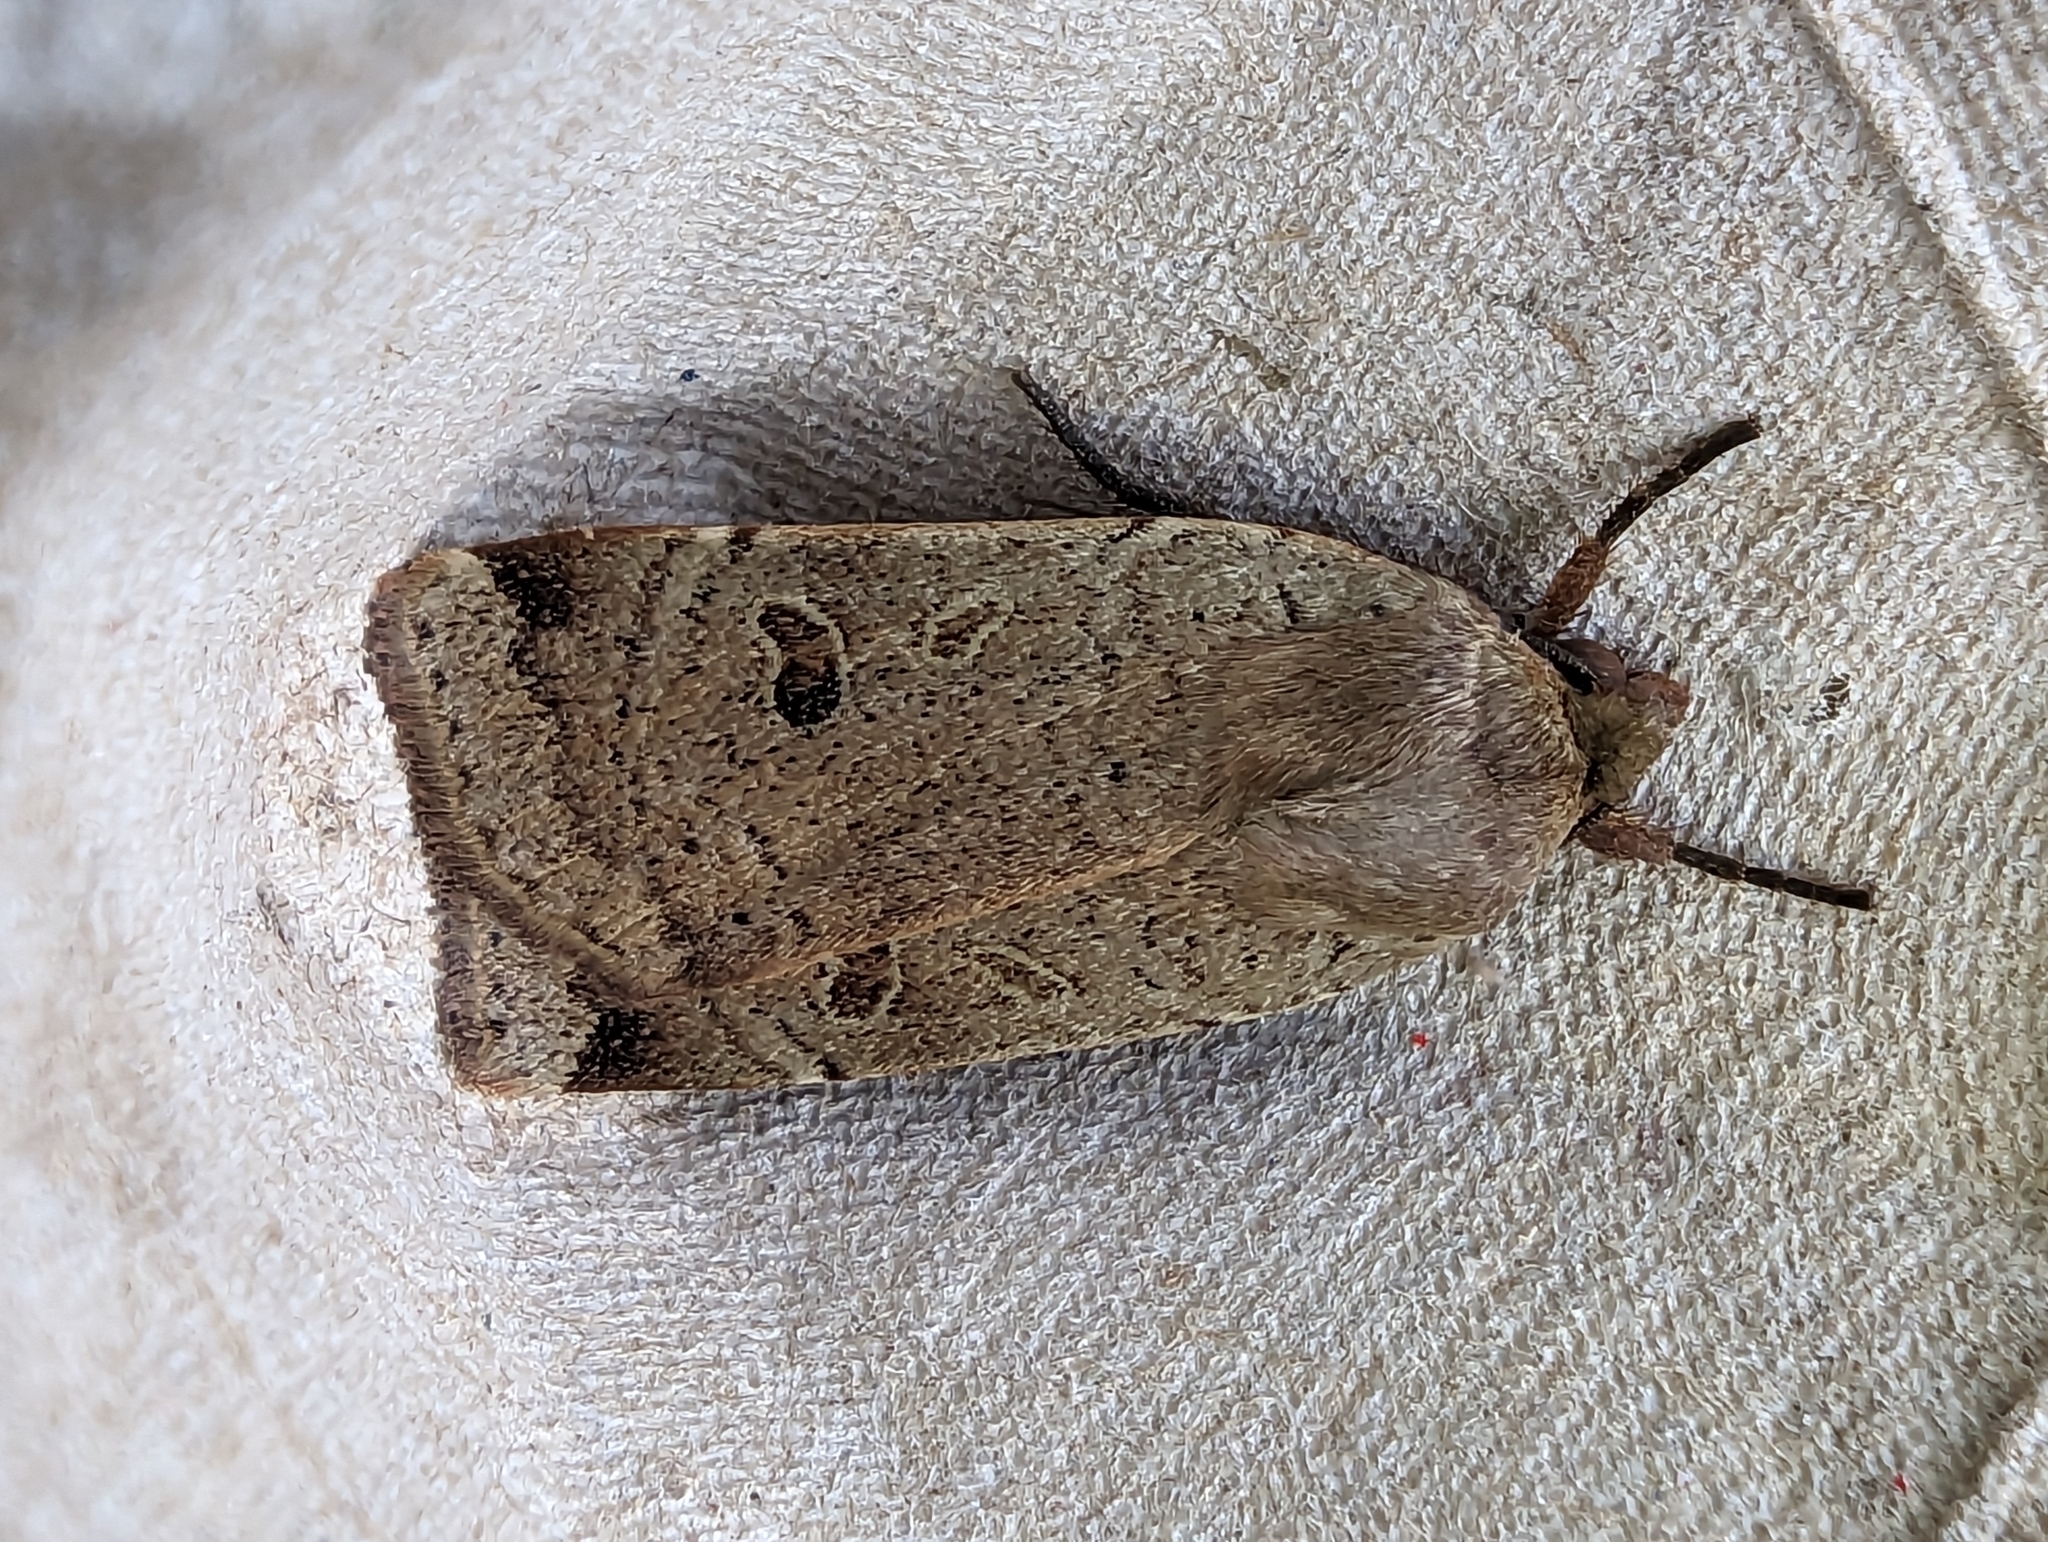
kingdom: Animalia
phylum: Arthropoda
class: Insecta
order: Lepidoptera
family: Noctuidae
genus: Noctua
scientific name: Noctua comes
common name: Lesser yellow underwing
